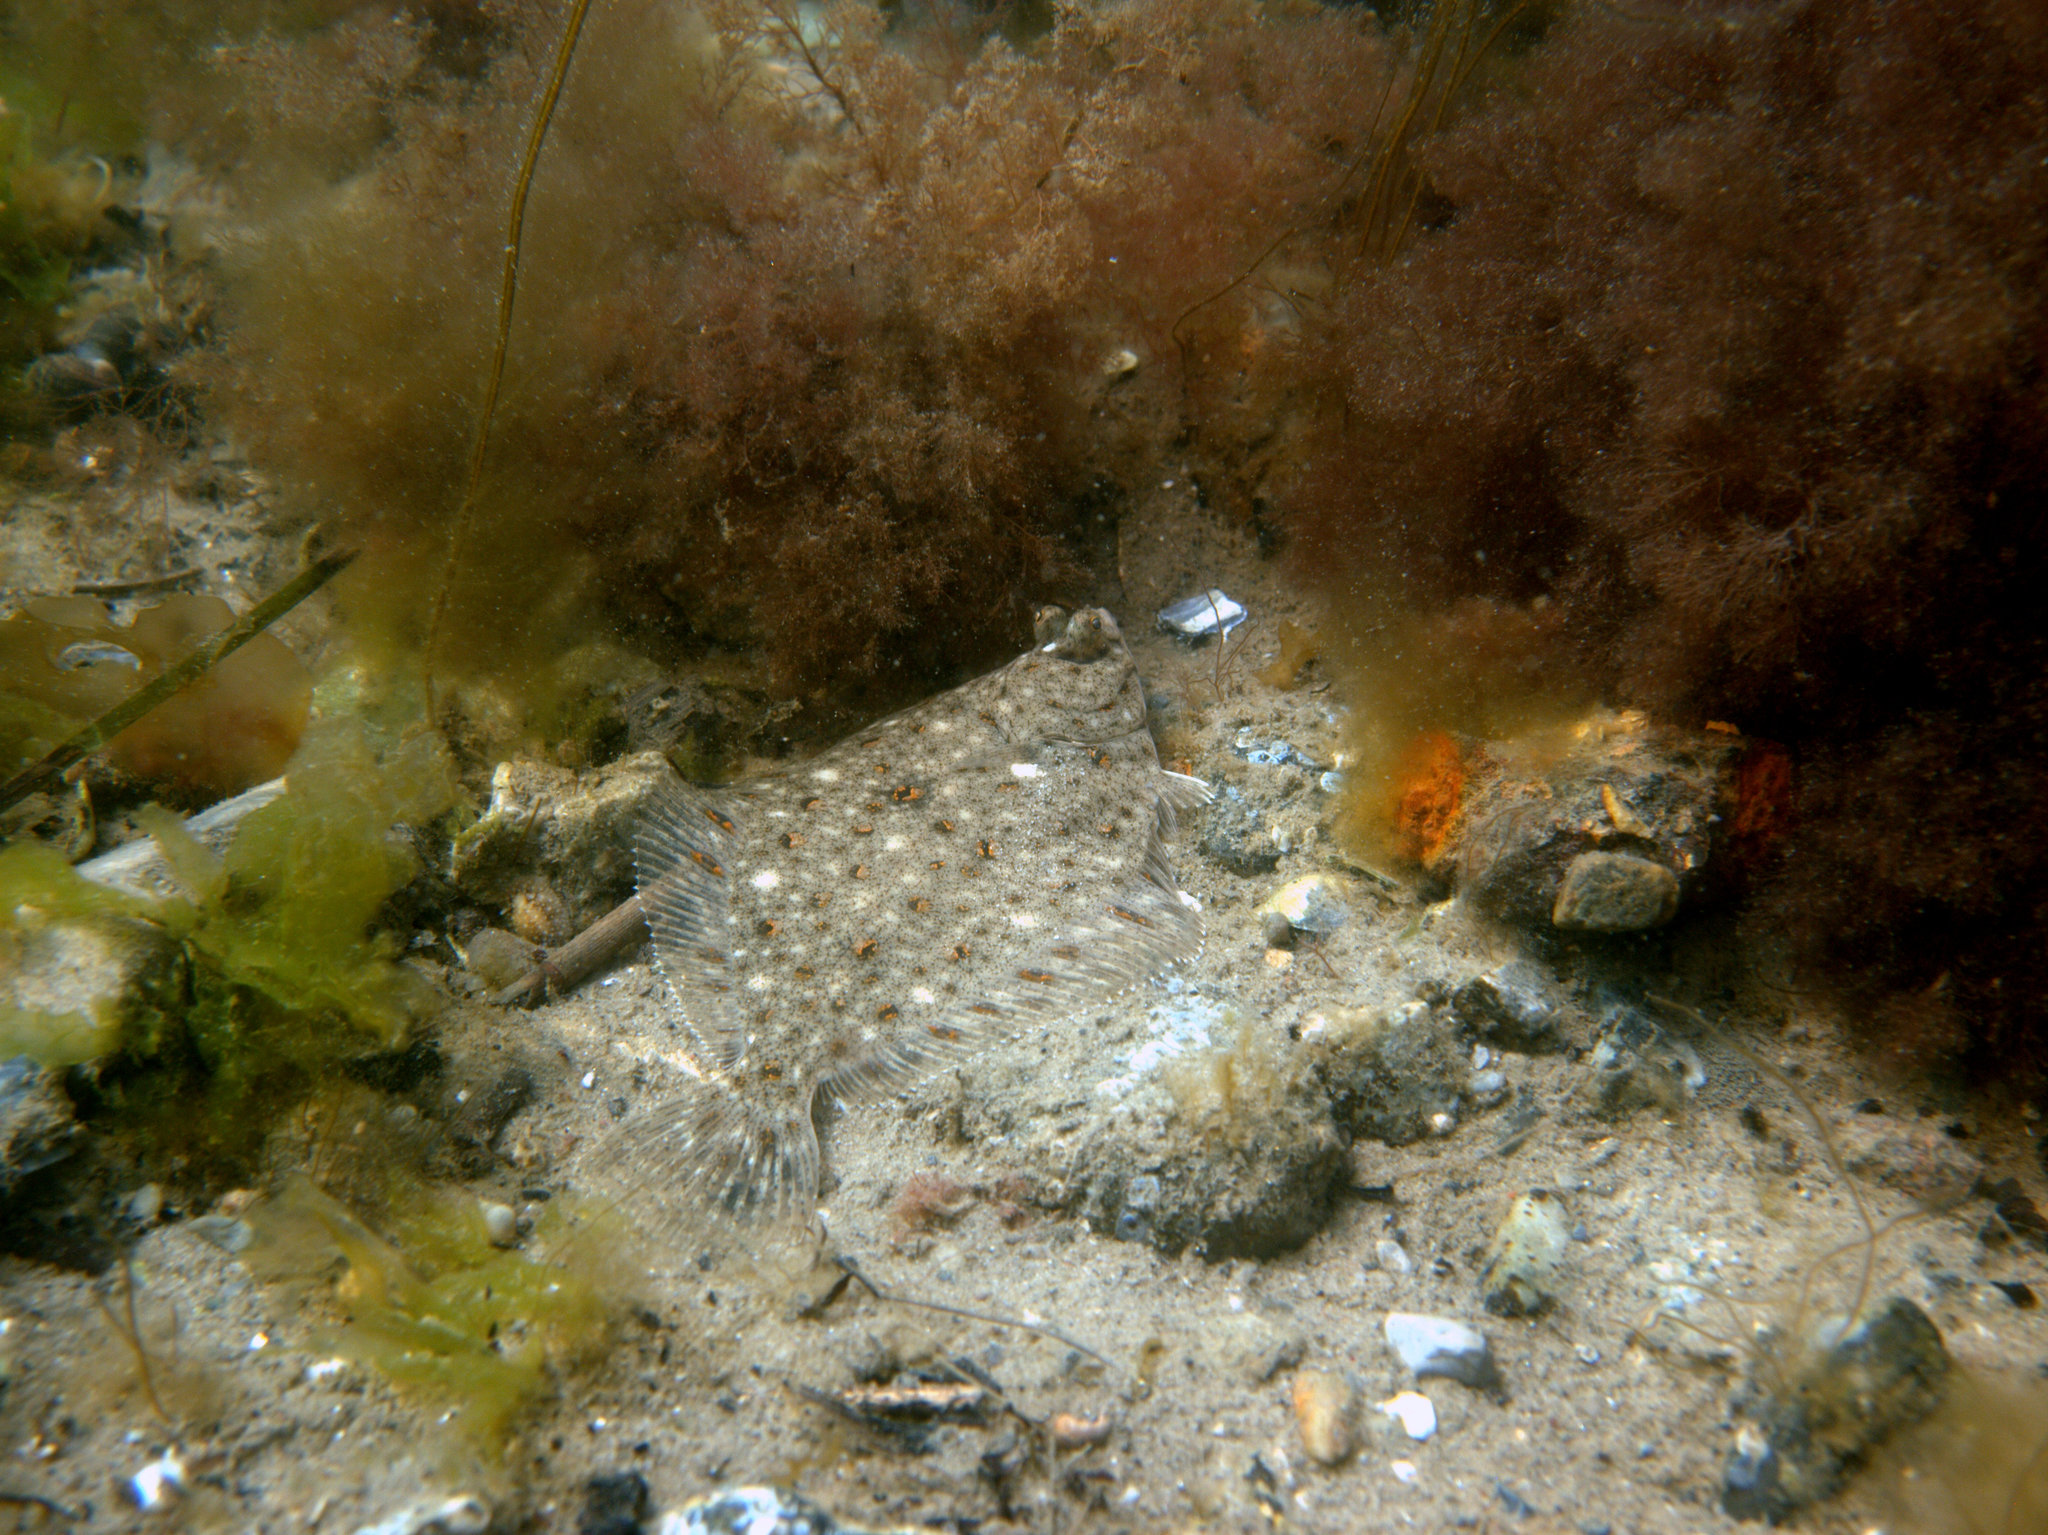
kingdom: Animalia
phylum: Chordata
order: Pleuronectiformes
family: Pleuronectidae
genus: Pleuronectes
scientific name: Pleuronectes platessa
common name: Plaice
